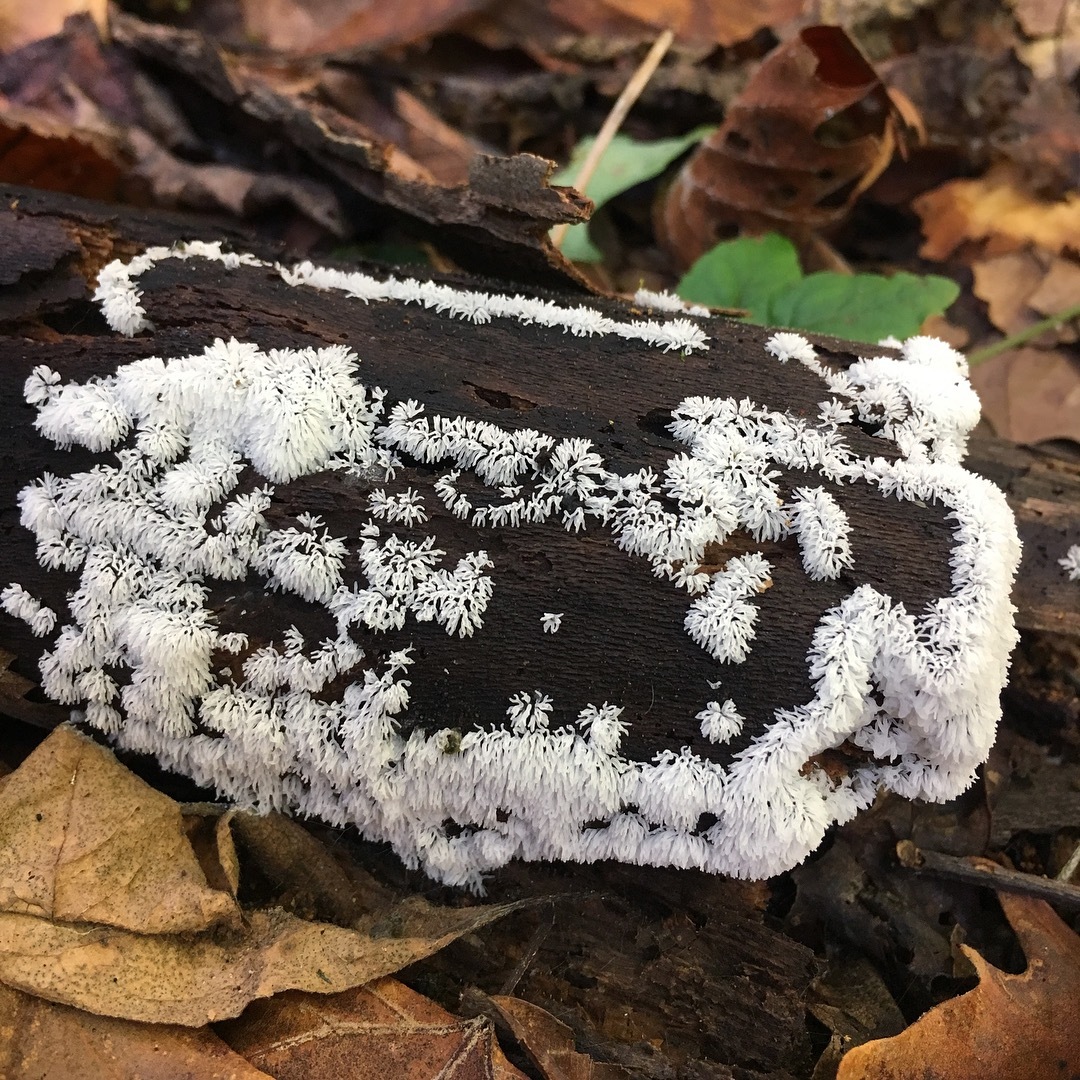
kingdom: Protozoa
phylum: Mycetozoa
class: Protosteliomycetes
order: Ceratiomyxales
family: Ceratiomyxaceae
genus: Ceratiomyxa
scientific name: Ceratiomyxa fruticulosa
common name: Honeycomb coral slime mold
